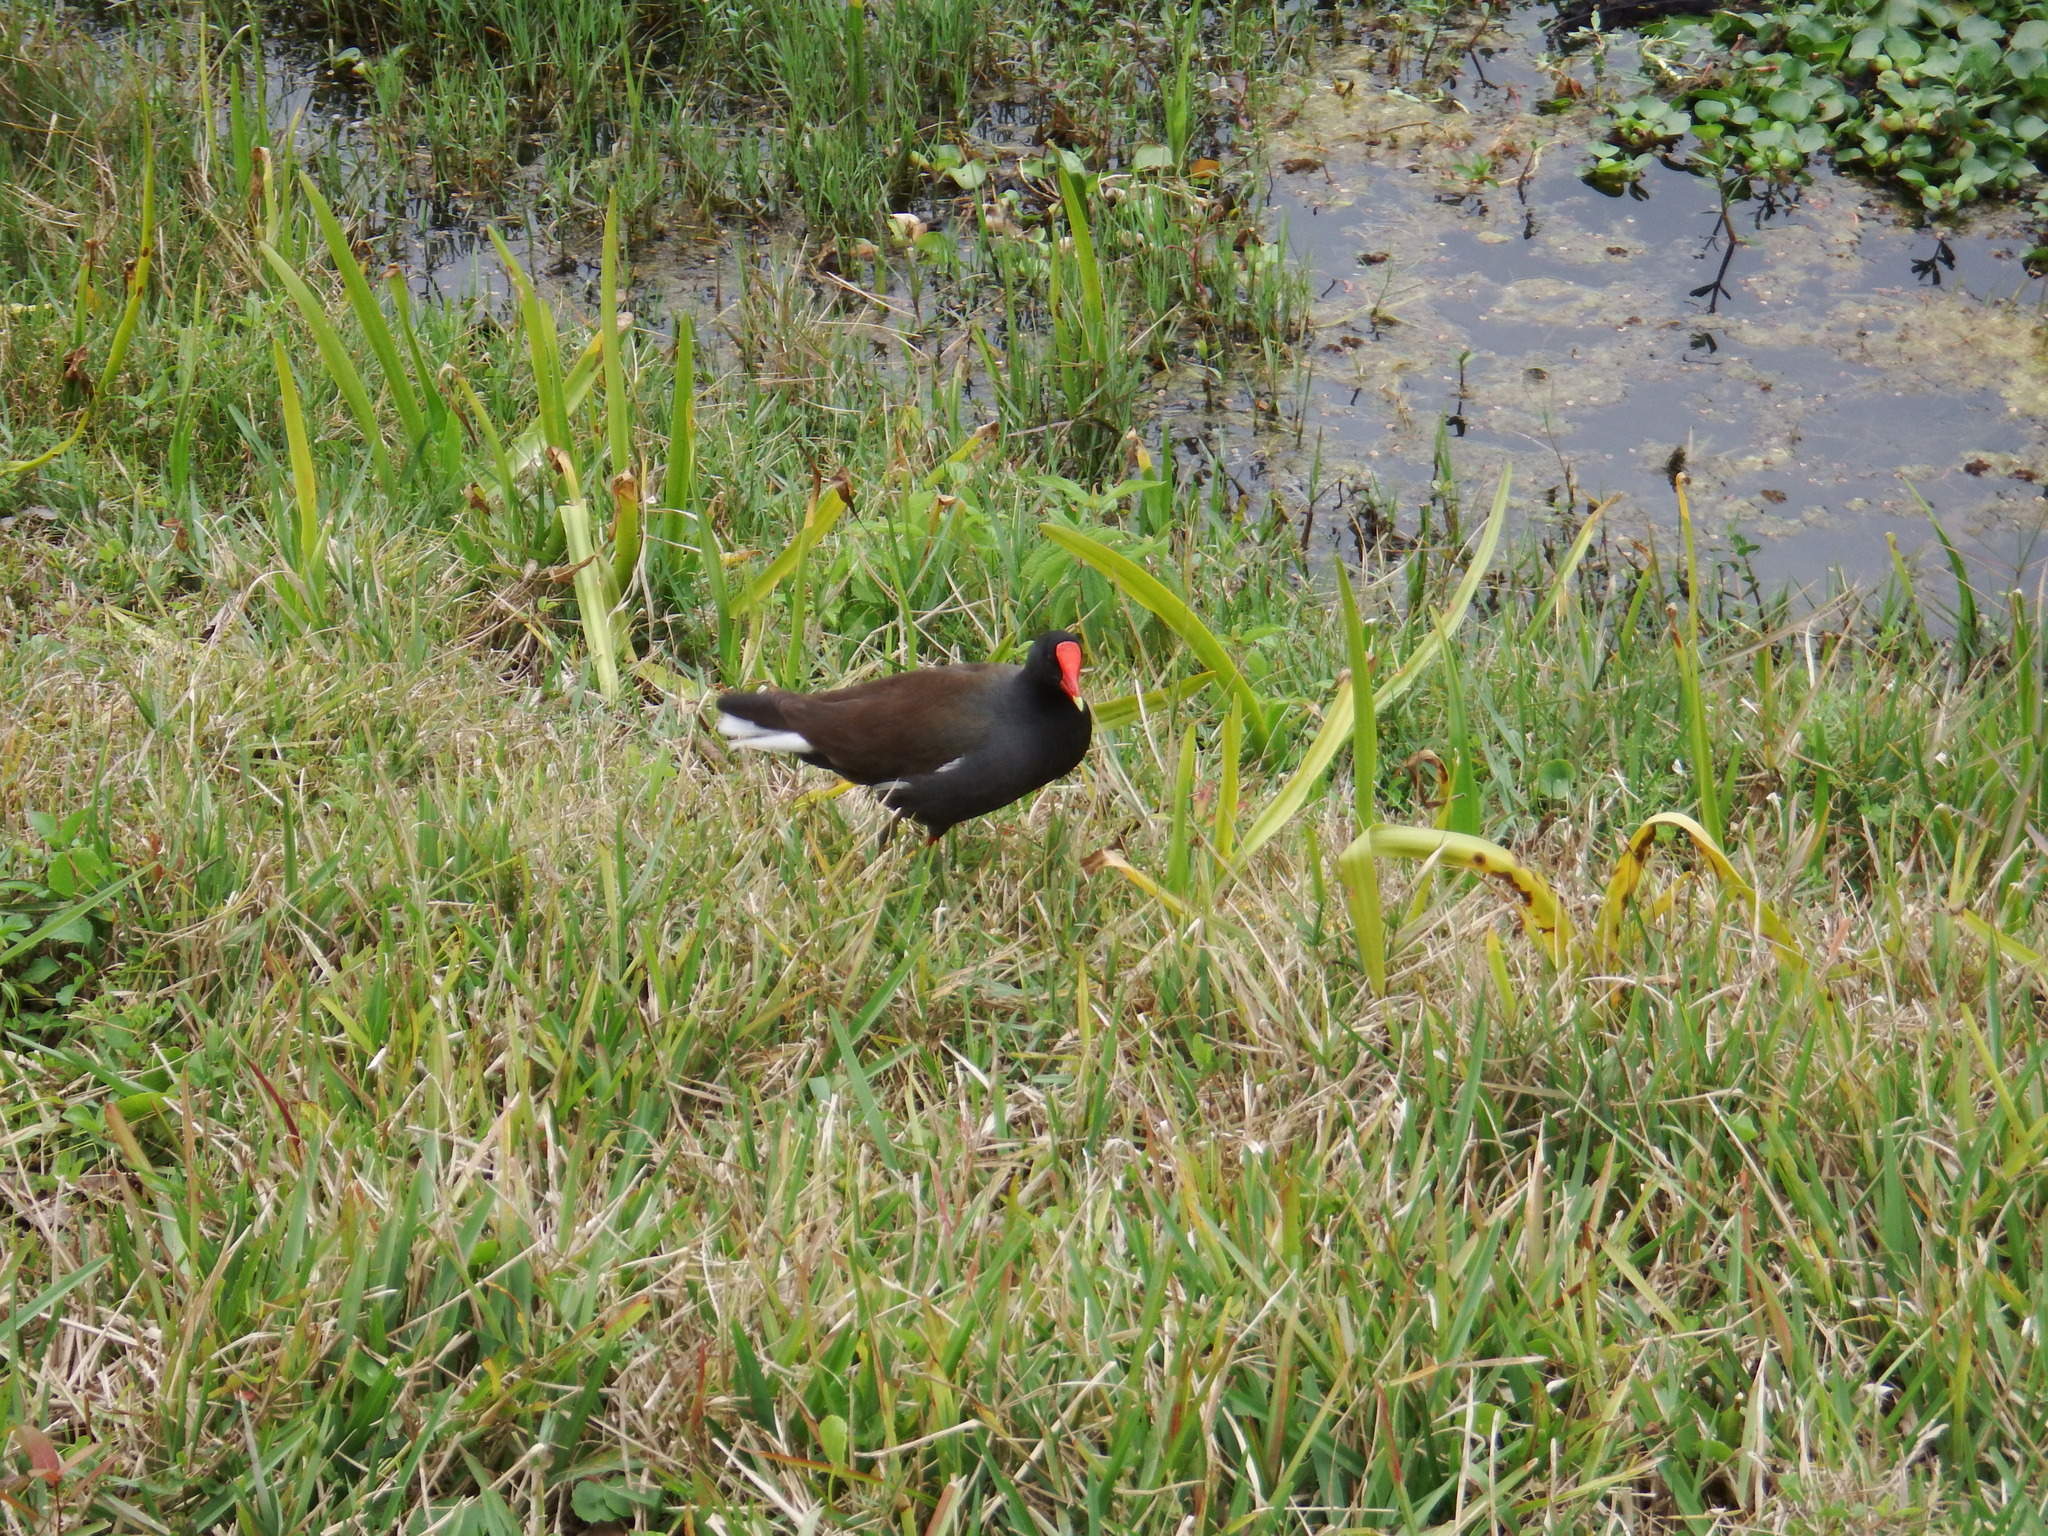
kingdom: Animalia
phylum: Chordata
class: Aves
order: Gruiformes
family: Rallidae
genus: Gallinula
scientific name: Gallinula chloropus
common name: Common moorhen
